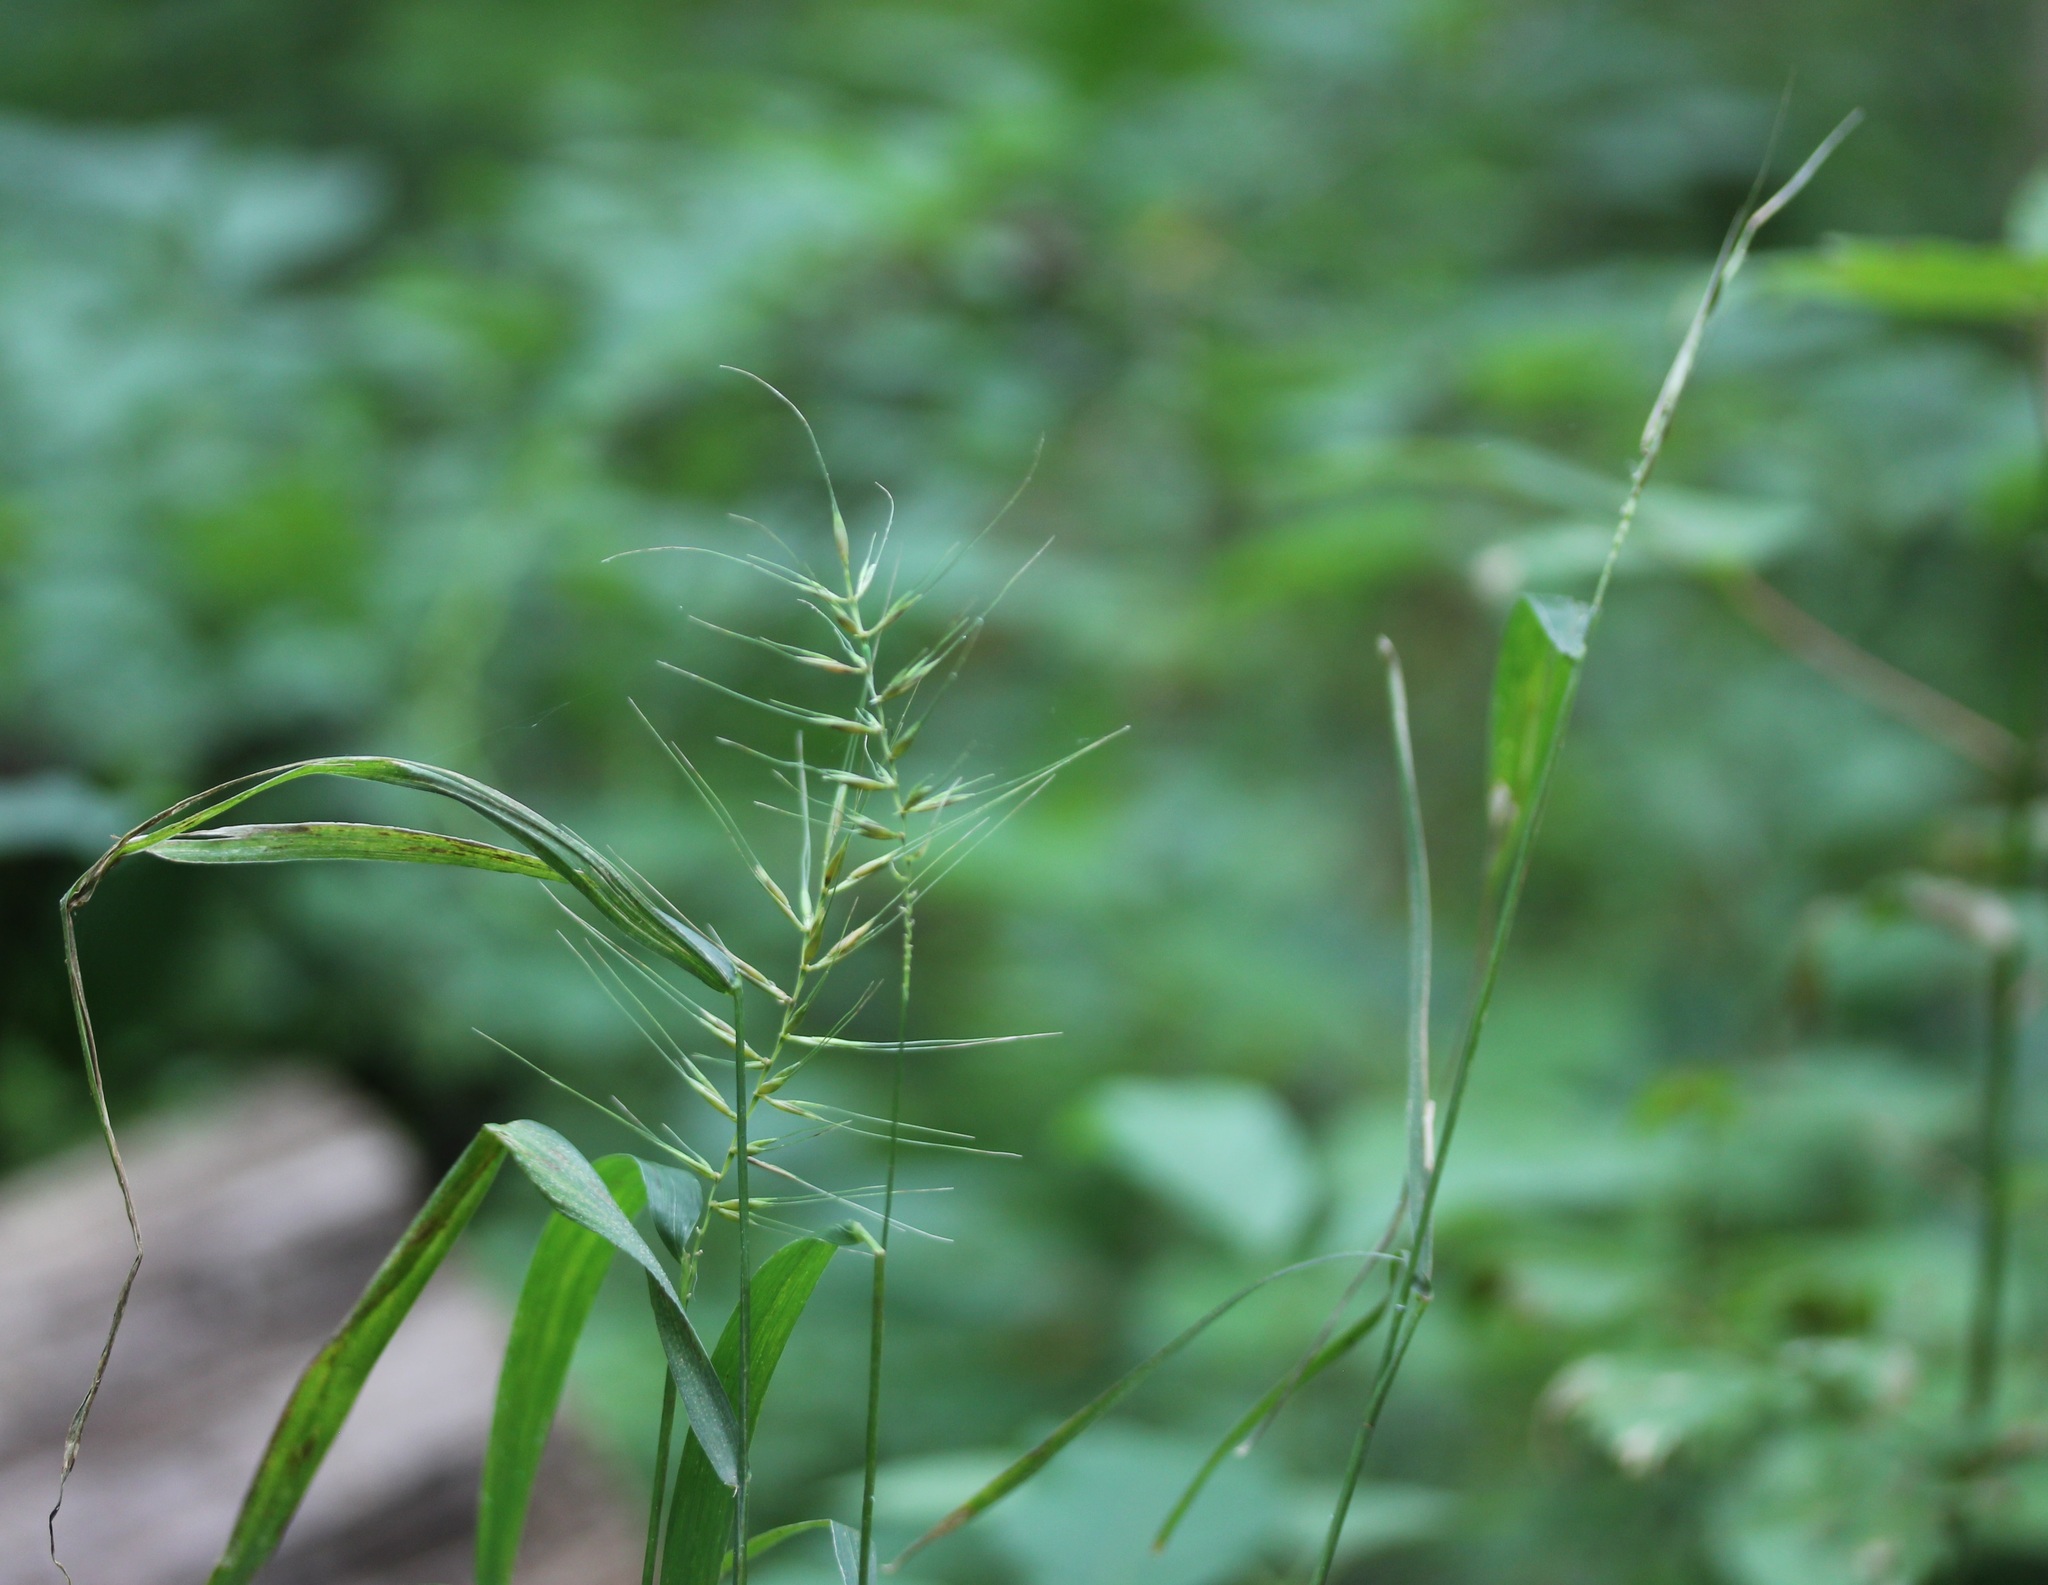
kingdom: Plantae
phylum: Tracheophyta
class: Liliopsida
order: Poales
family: Poaceae
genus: Elymus
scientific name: Elymus hystrix
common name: Bottlebrush grass
